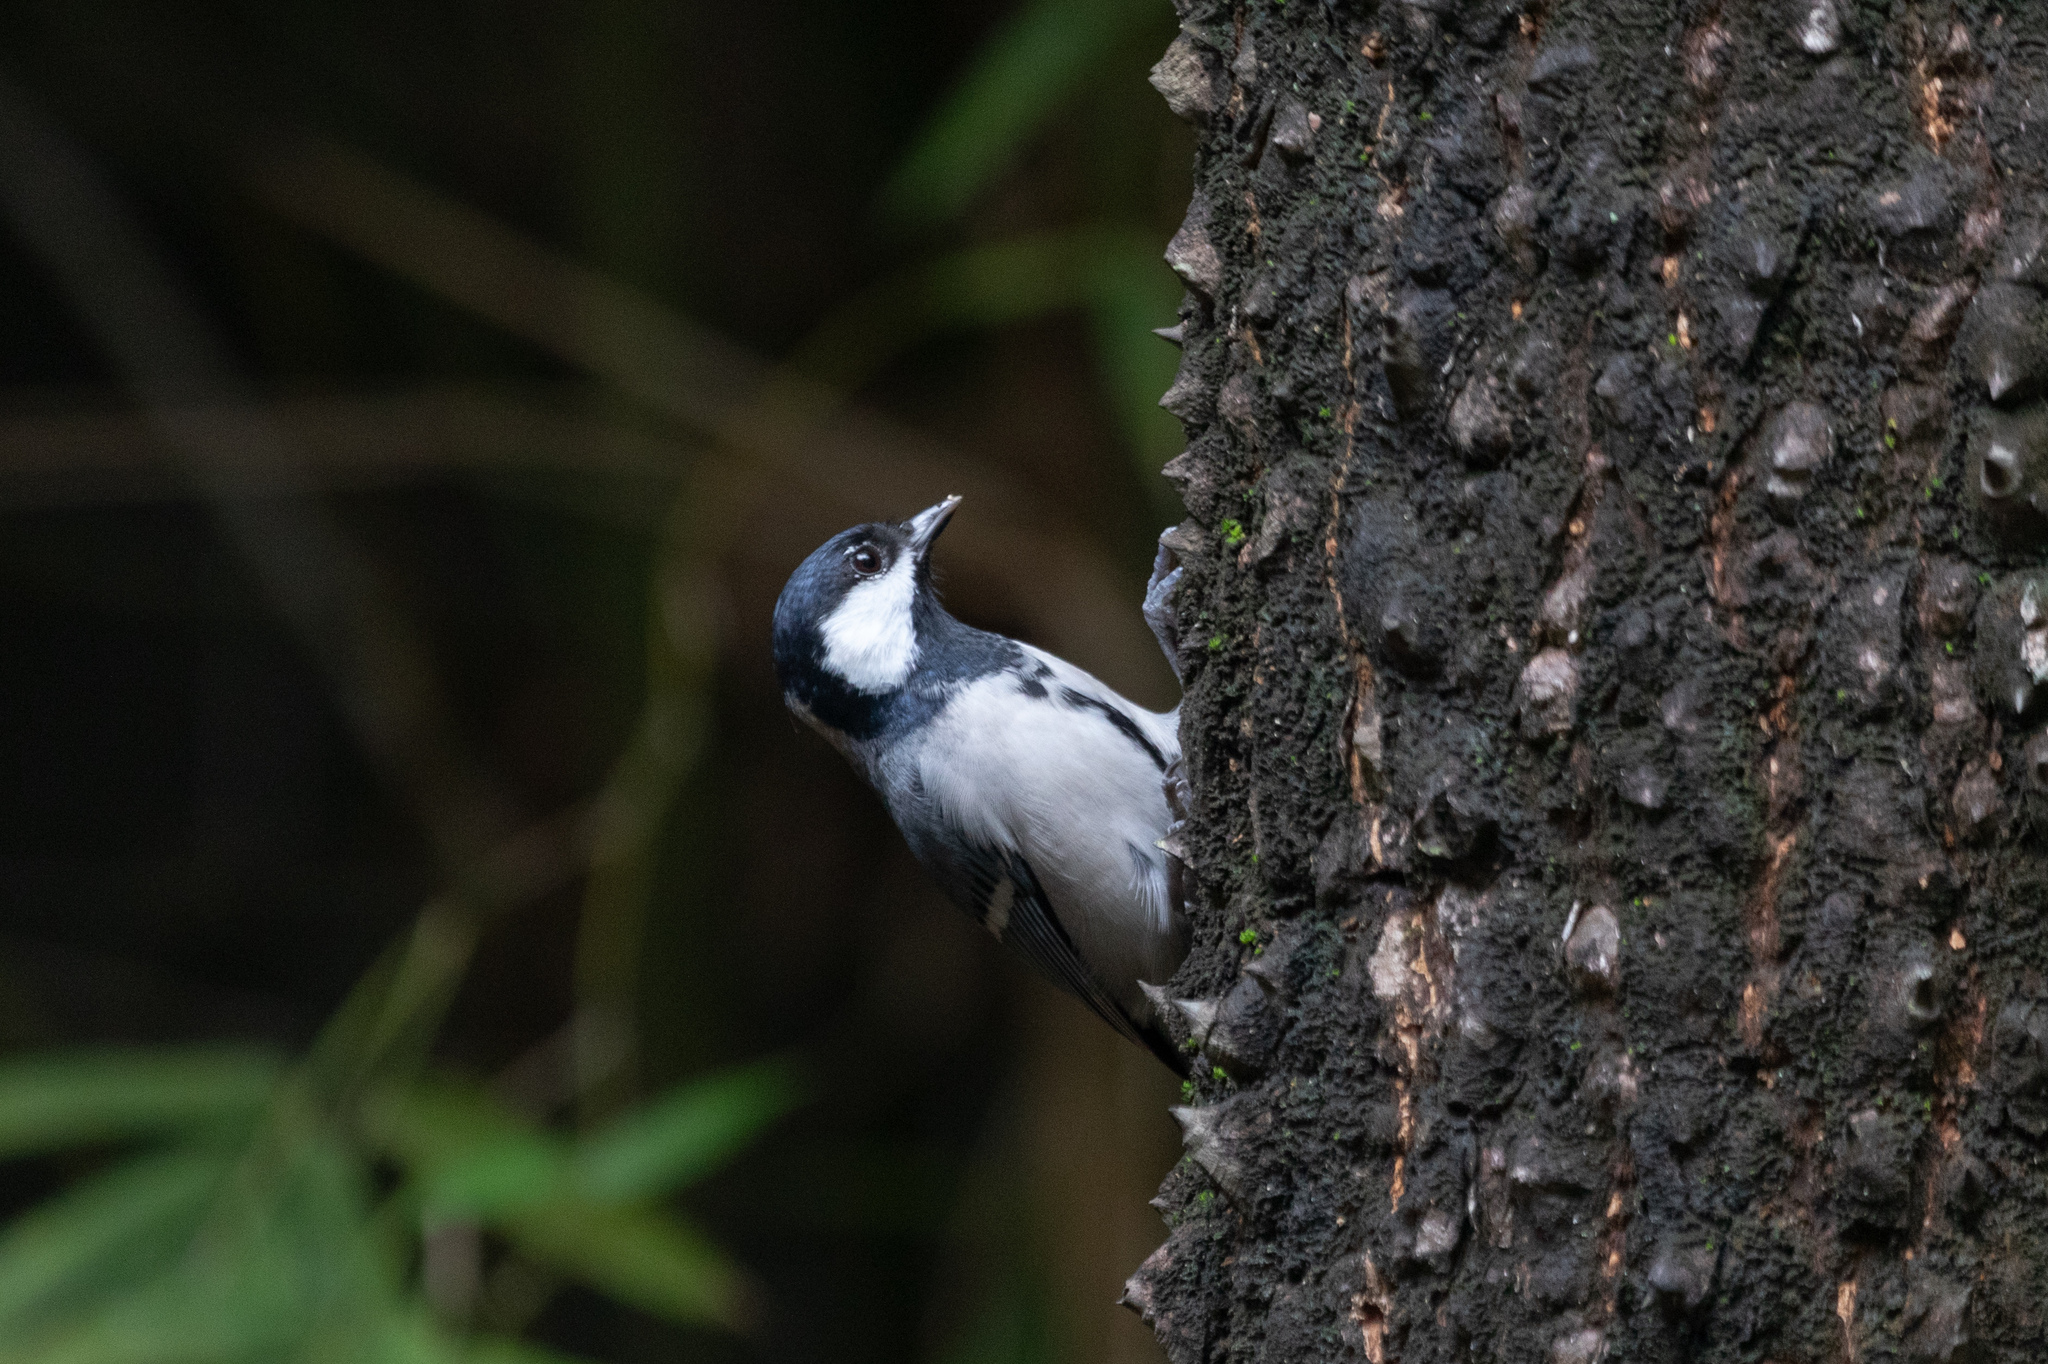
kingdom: Animalia
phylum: Chordata
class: Aves
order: Passeriformes
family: Paridae
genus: Parus
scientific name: Parus minor
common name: Japanese tit
